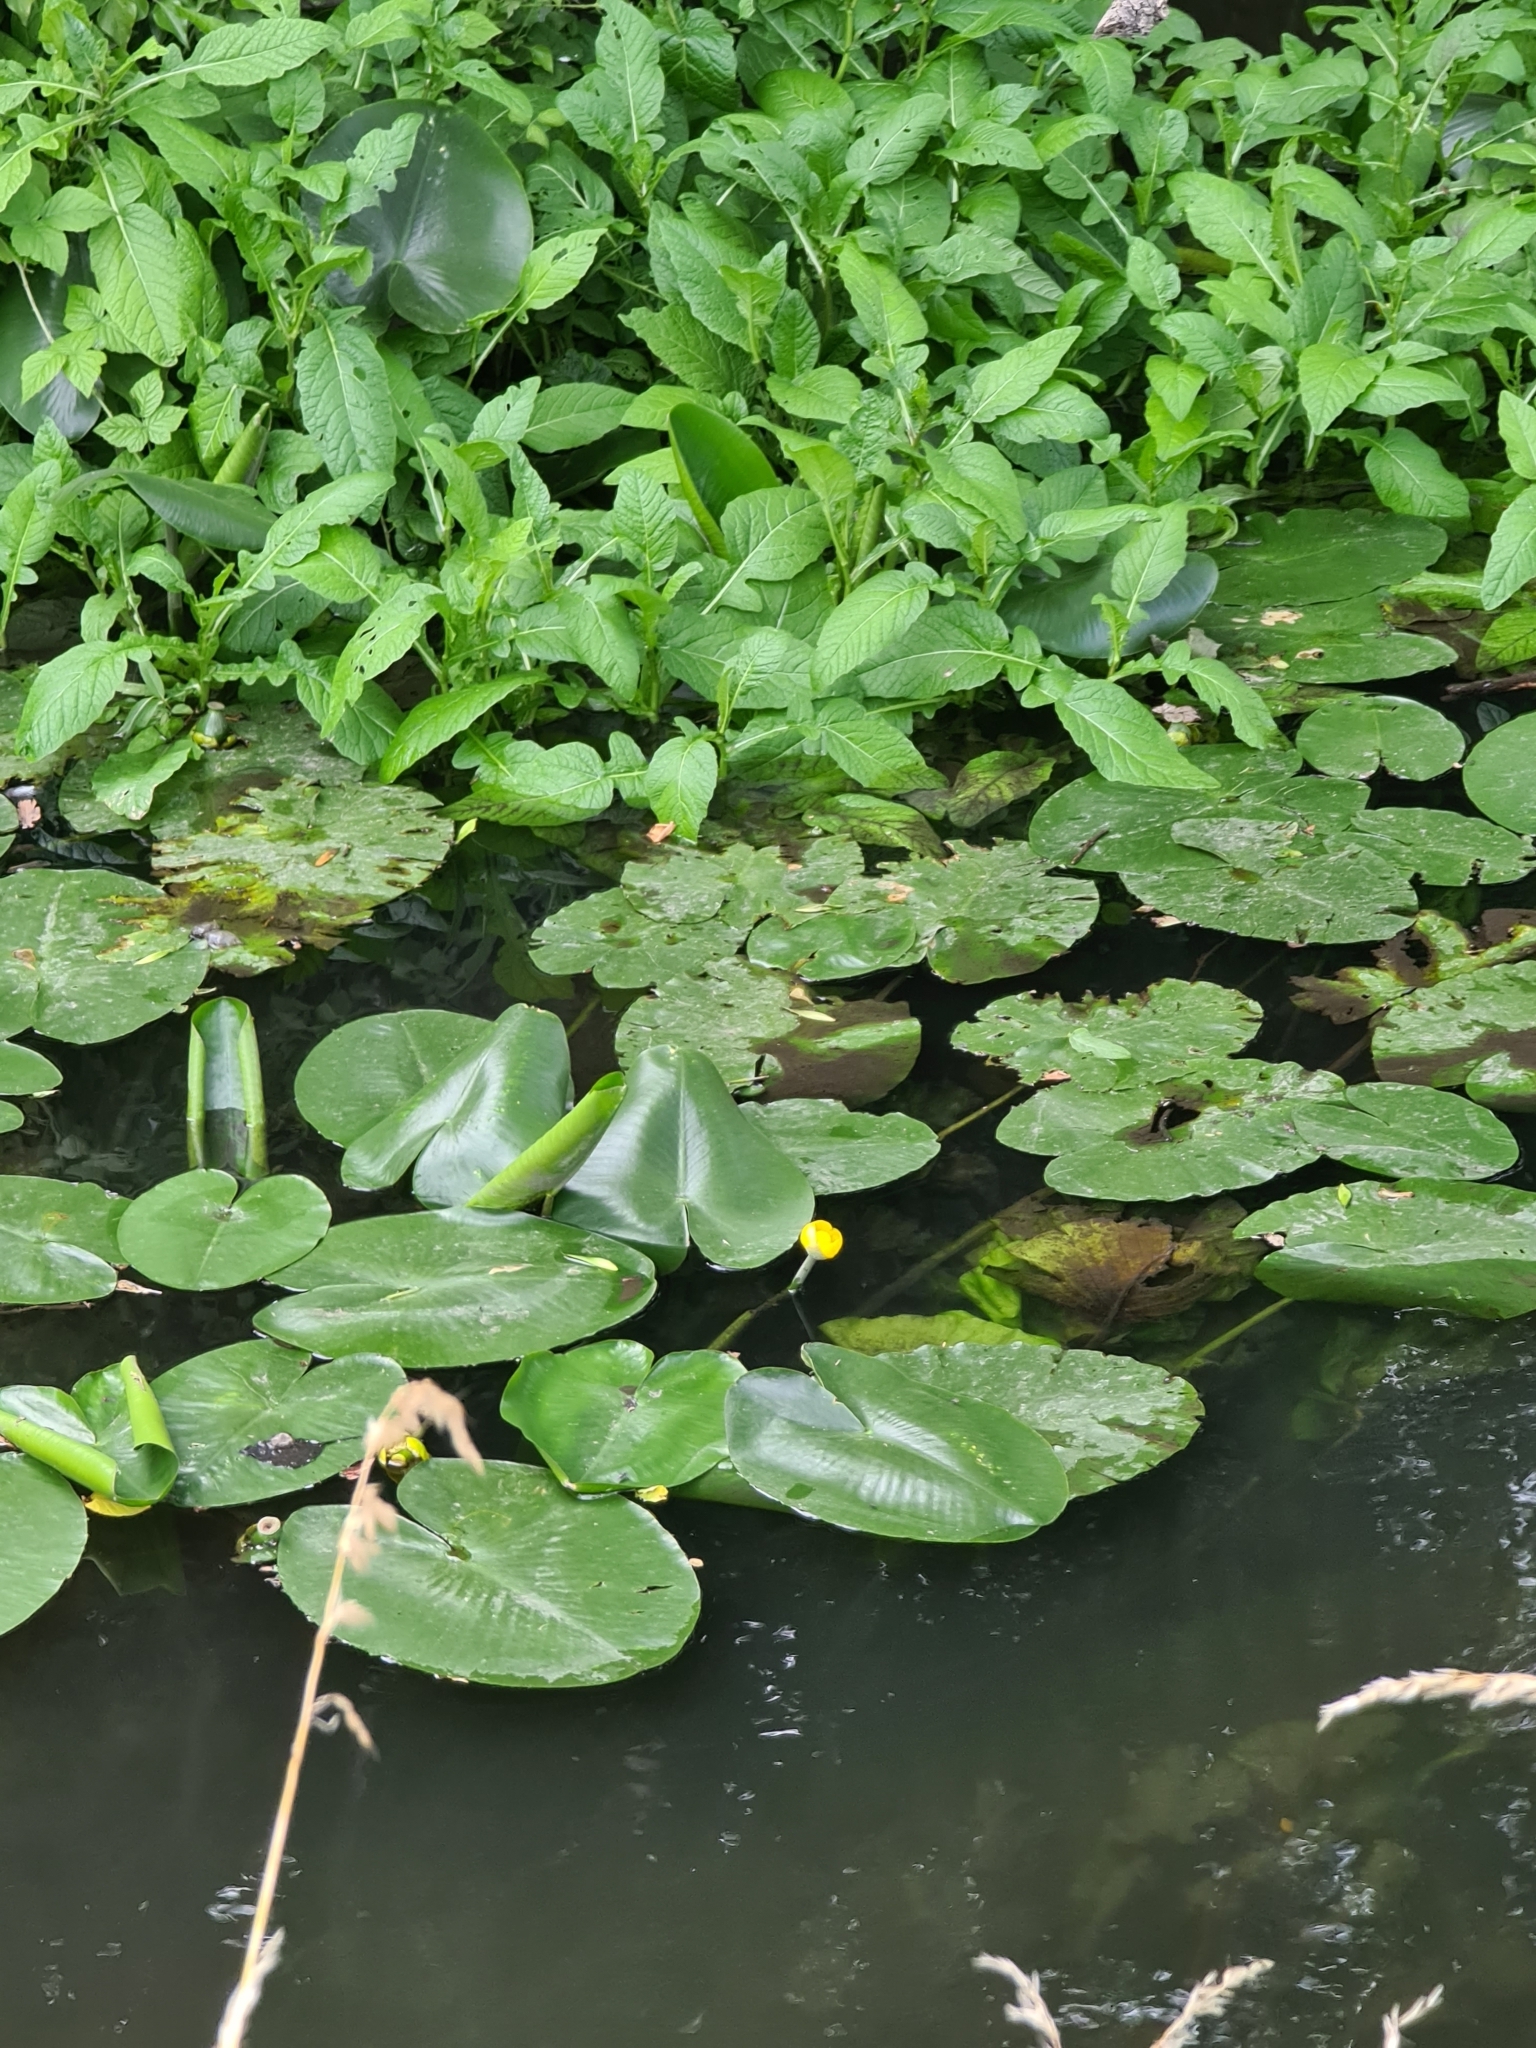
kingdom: Plantae
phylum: Tracheophyta
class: Magnoliopsida
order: Nymphaeales
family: Nymphaeaceae
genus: Nuphar
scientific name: Nuphar lutea
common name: Yellow water-lily
